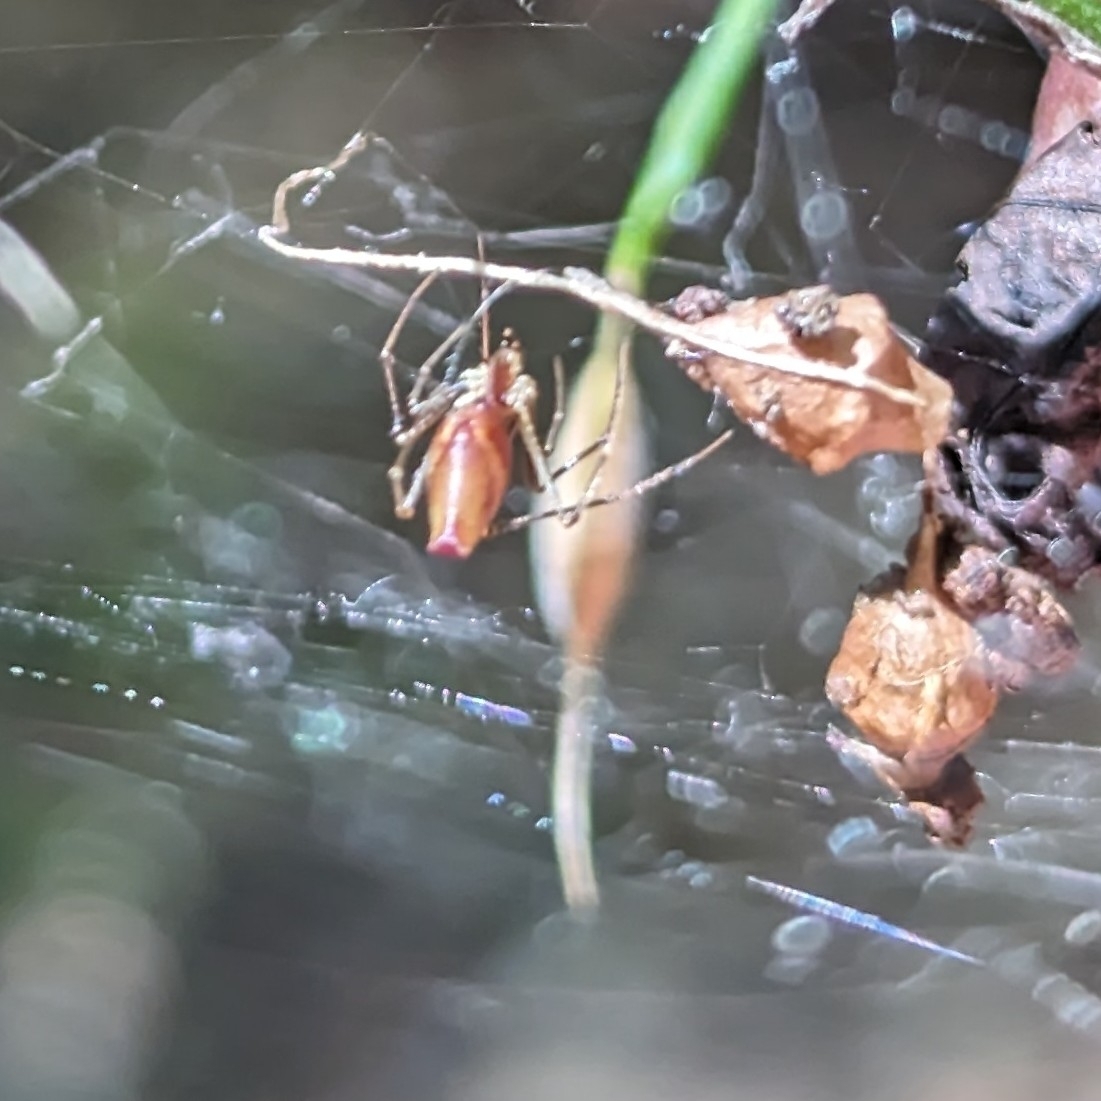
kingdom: Animalia
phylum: Arthropoda
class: Arachnida
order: Araneae
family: Theridiidae
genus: Neospintharus
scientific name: Neospintharus trigonum
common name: Horned parasitic cobweaver
